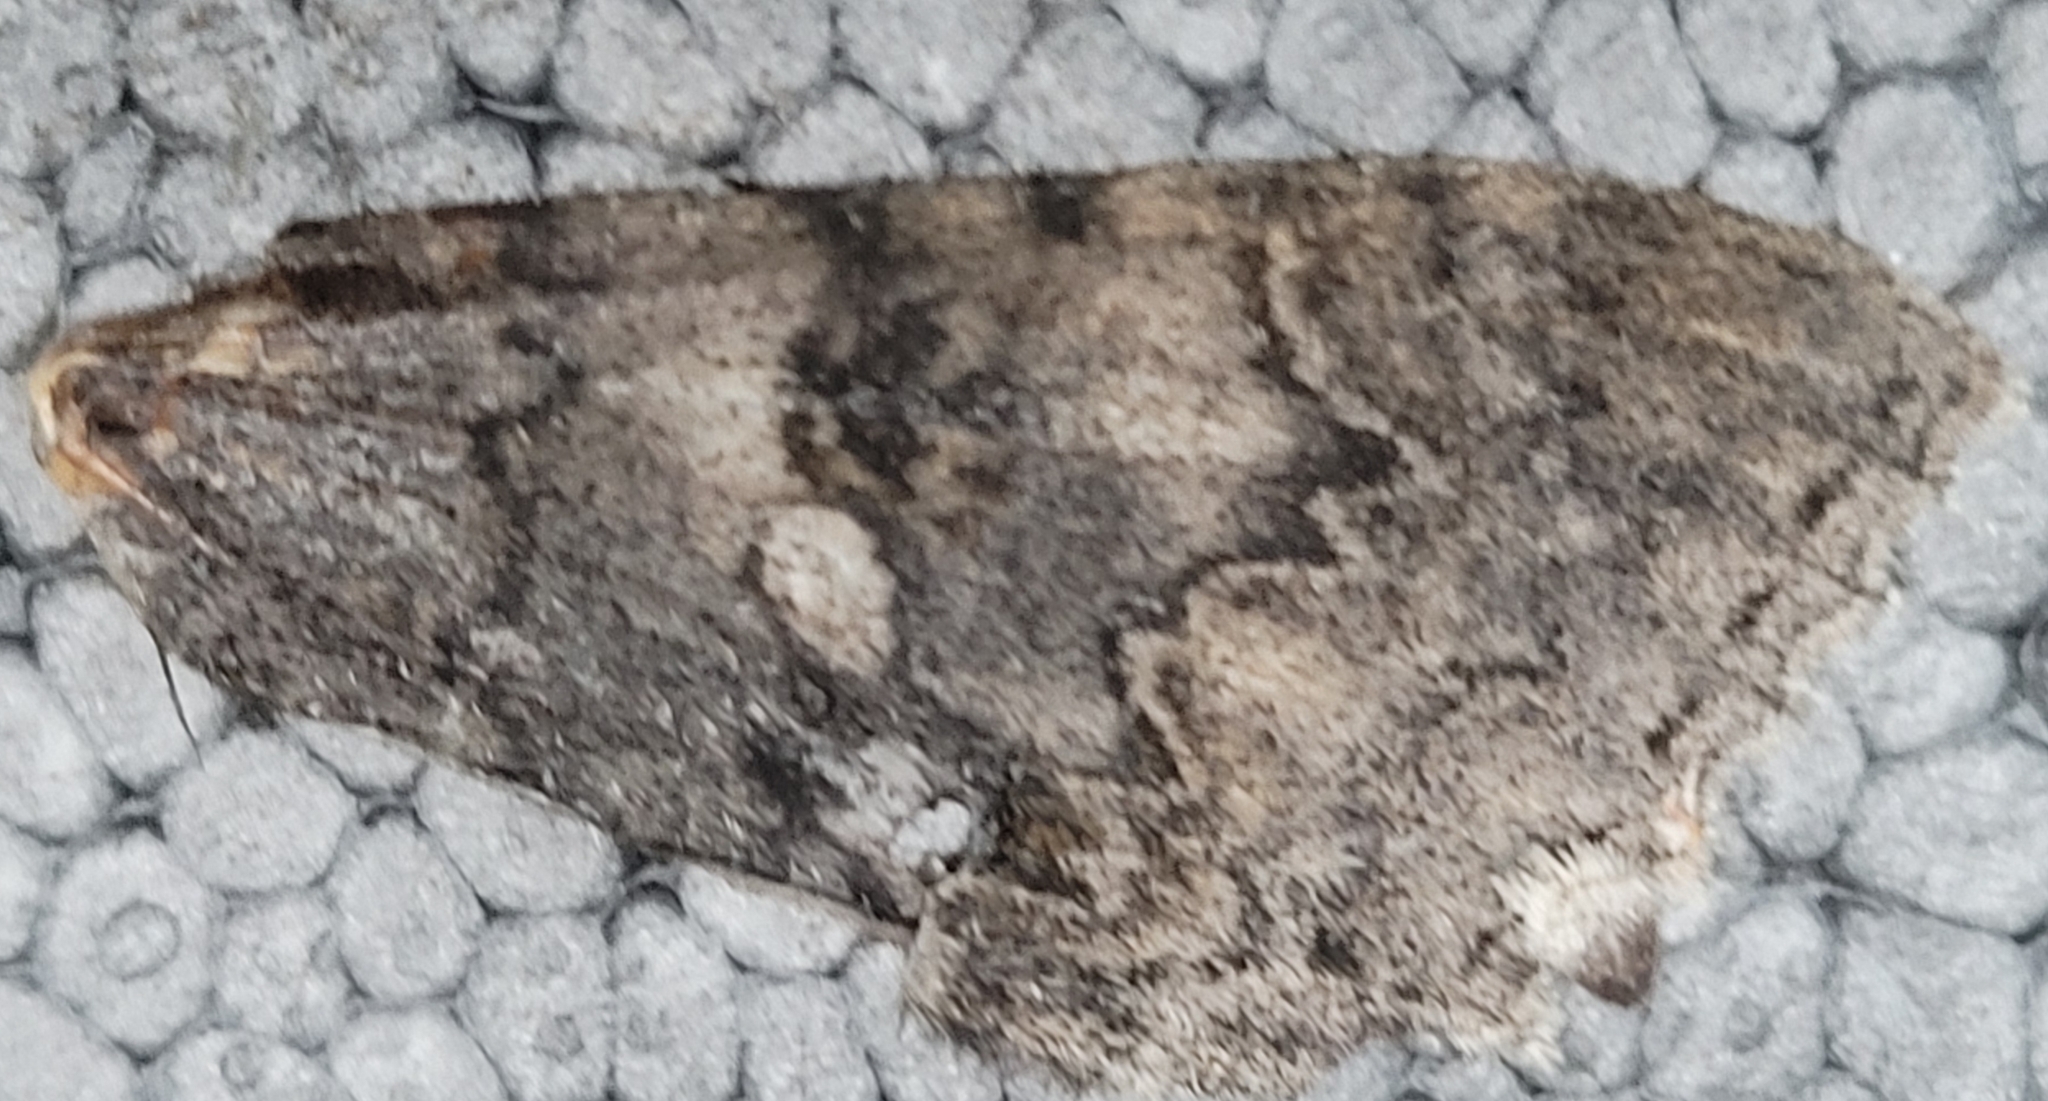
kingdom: Animalia
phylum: Arthropoda
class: Insecta
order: Lepidoptera
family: Erebidae
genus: Catocala
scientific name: Catocala nupta
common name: Red underwing
